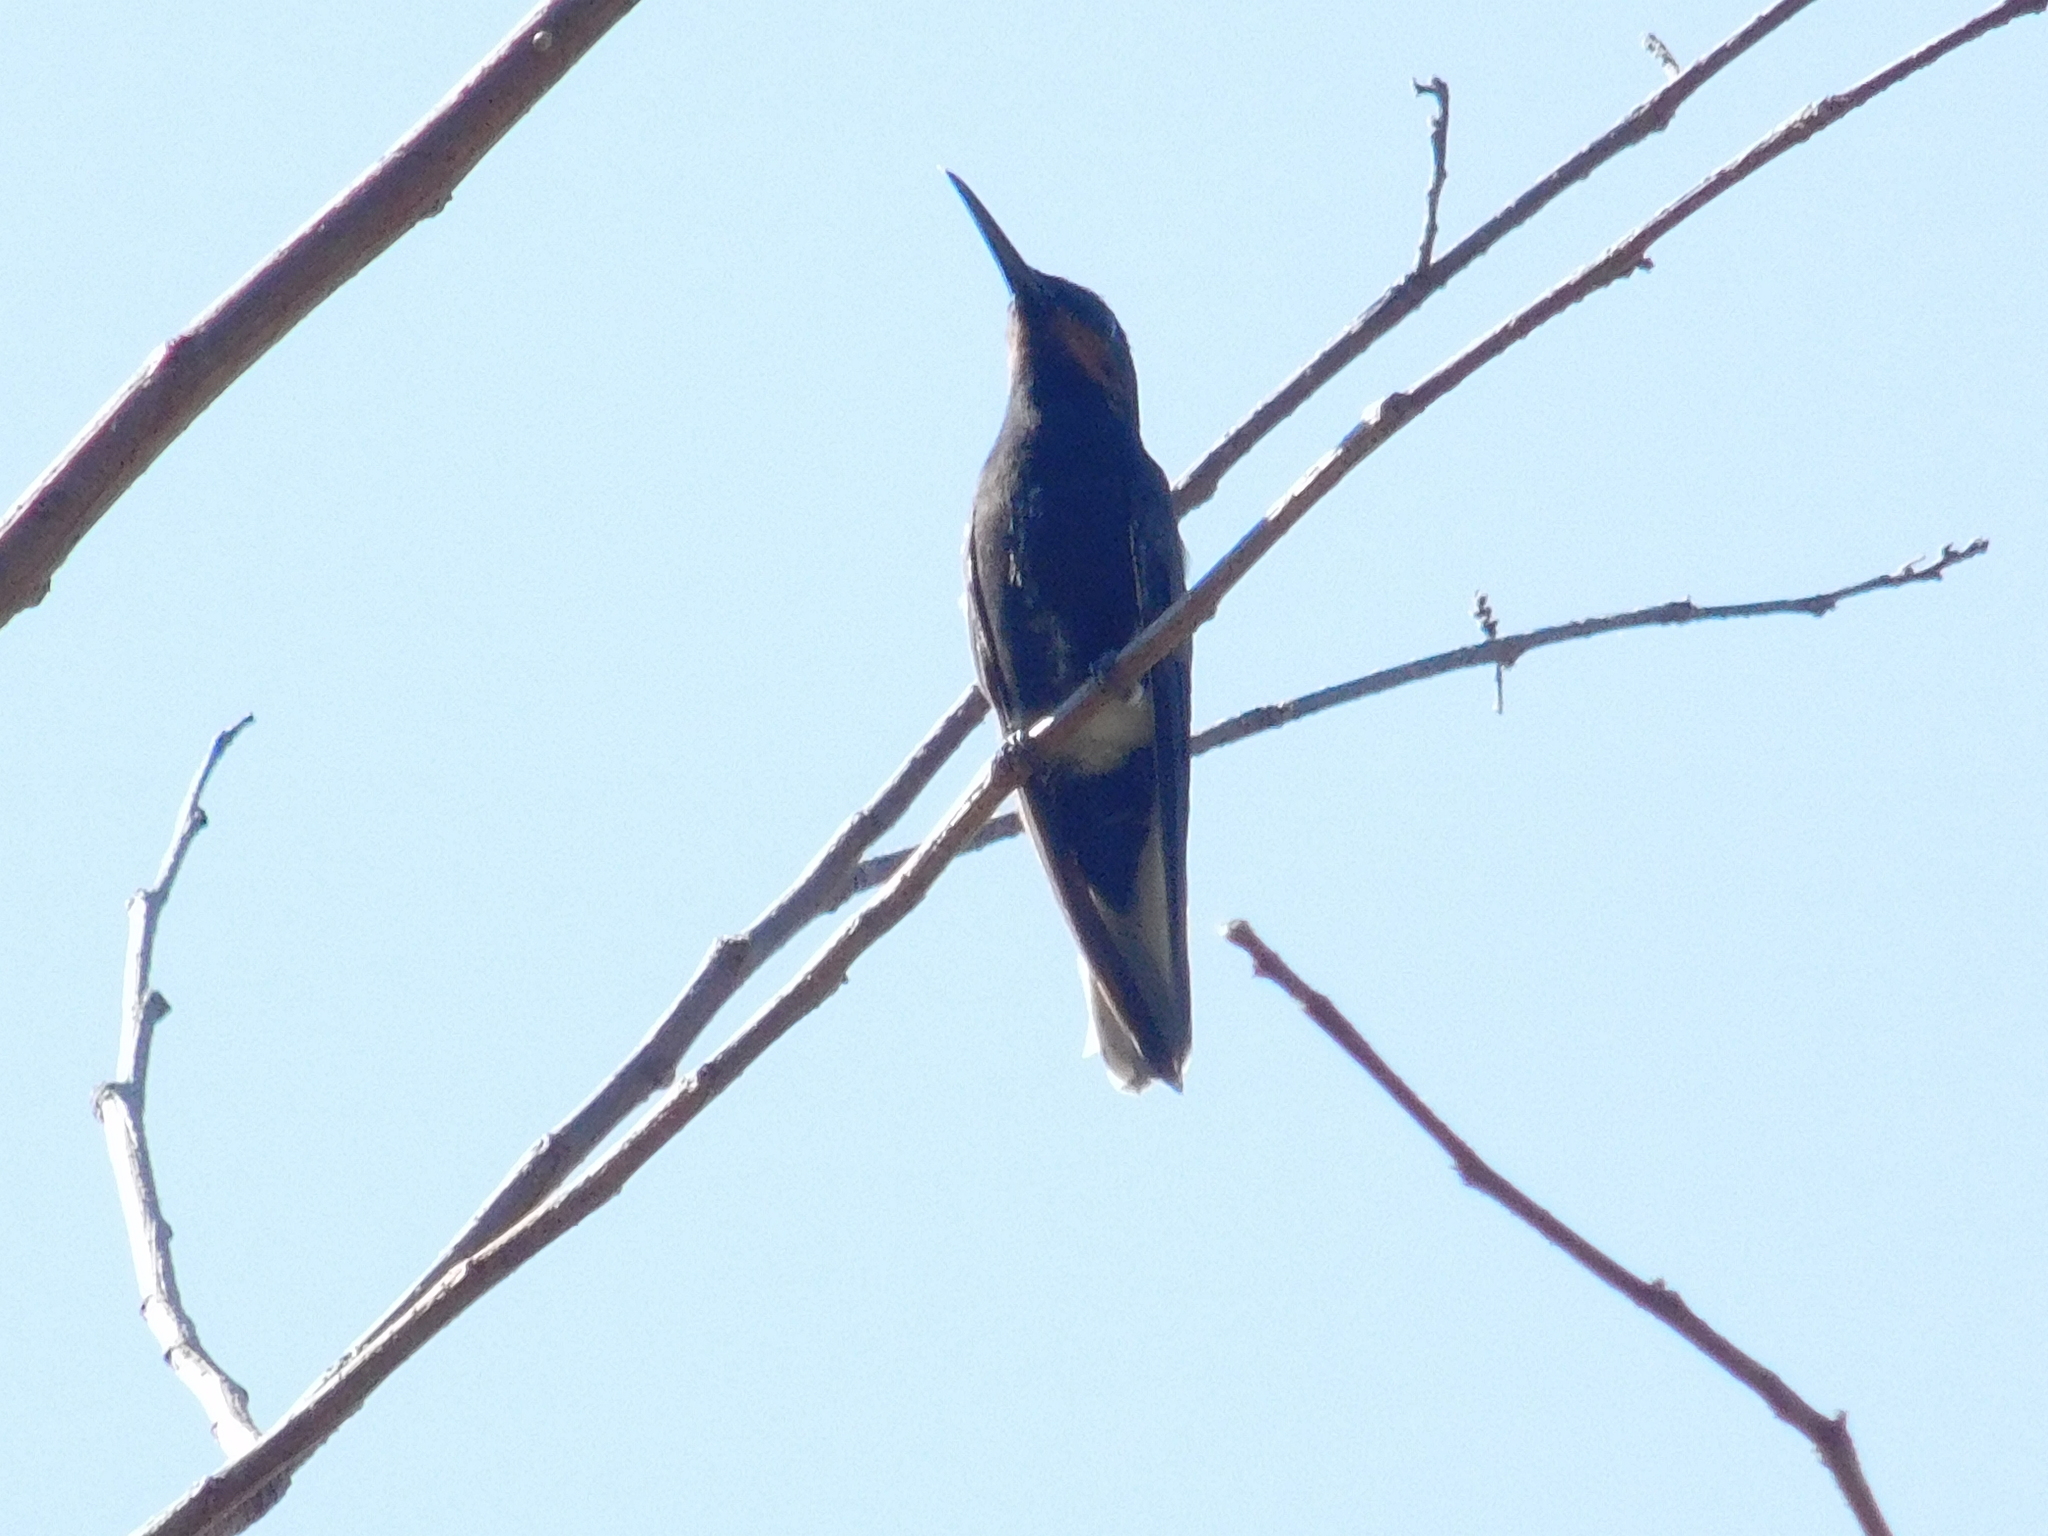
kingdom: Animalia
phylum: Chordata
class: Aves
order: Apodiformes
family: Trochilidae
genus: Florisuga
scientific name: Florisuga fusca
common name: Black jacobin
